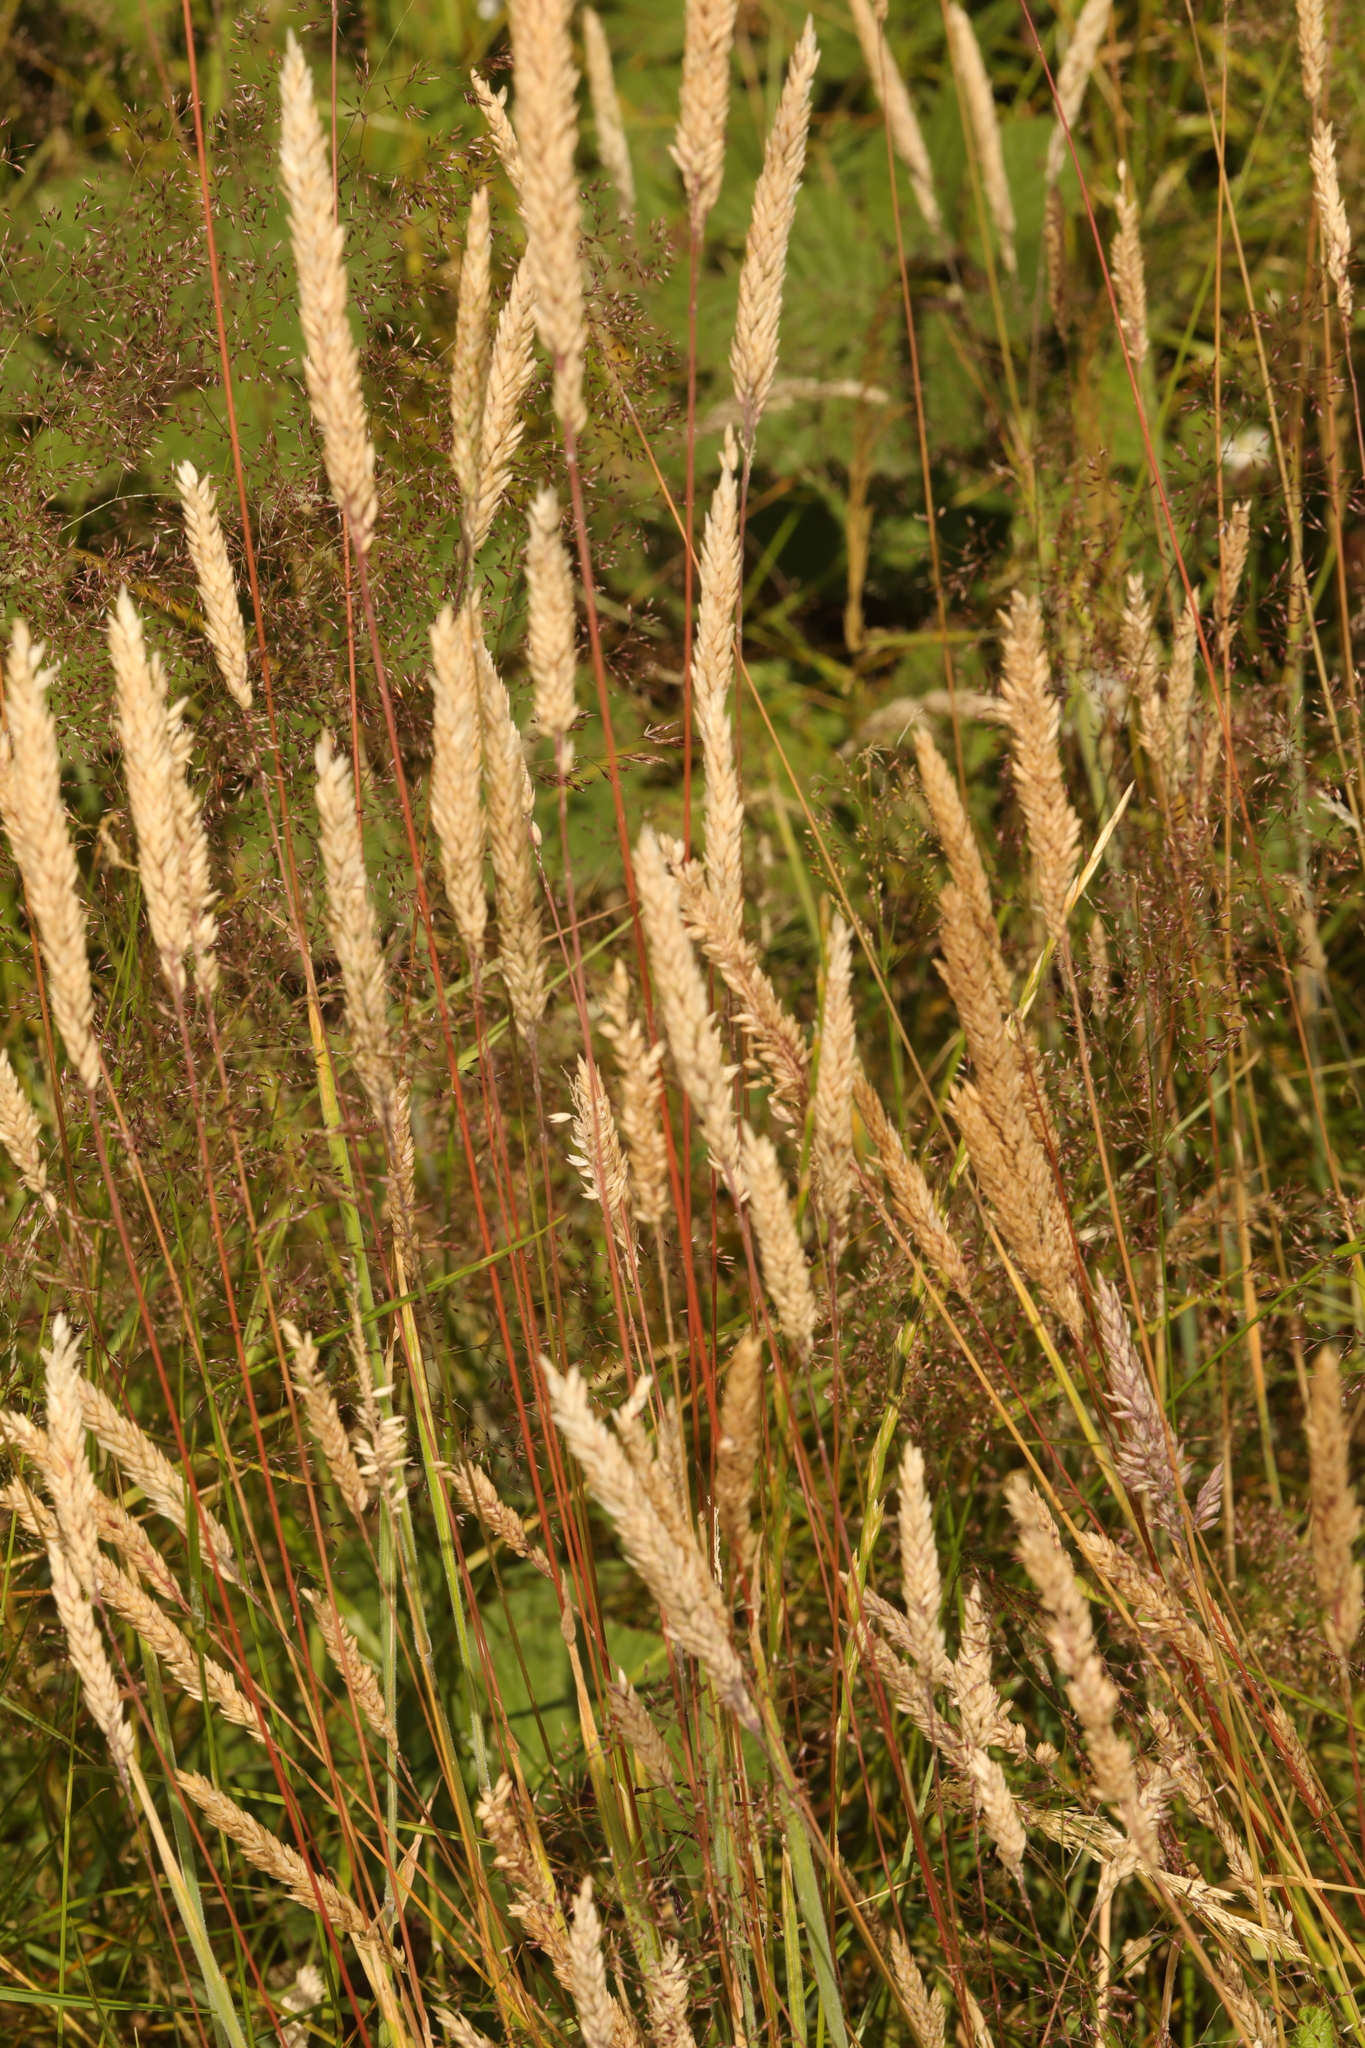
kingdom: Plantae
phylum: Tracheophyta
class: Liliopsida
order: Poales
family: Poaceae
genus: Holcus
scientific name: Holcus lanatus
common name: Yorkshire-fog
